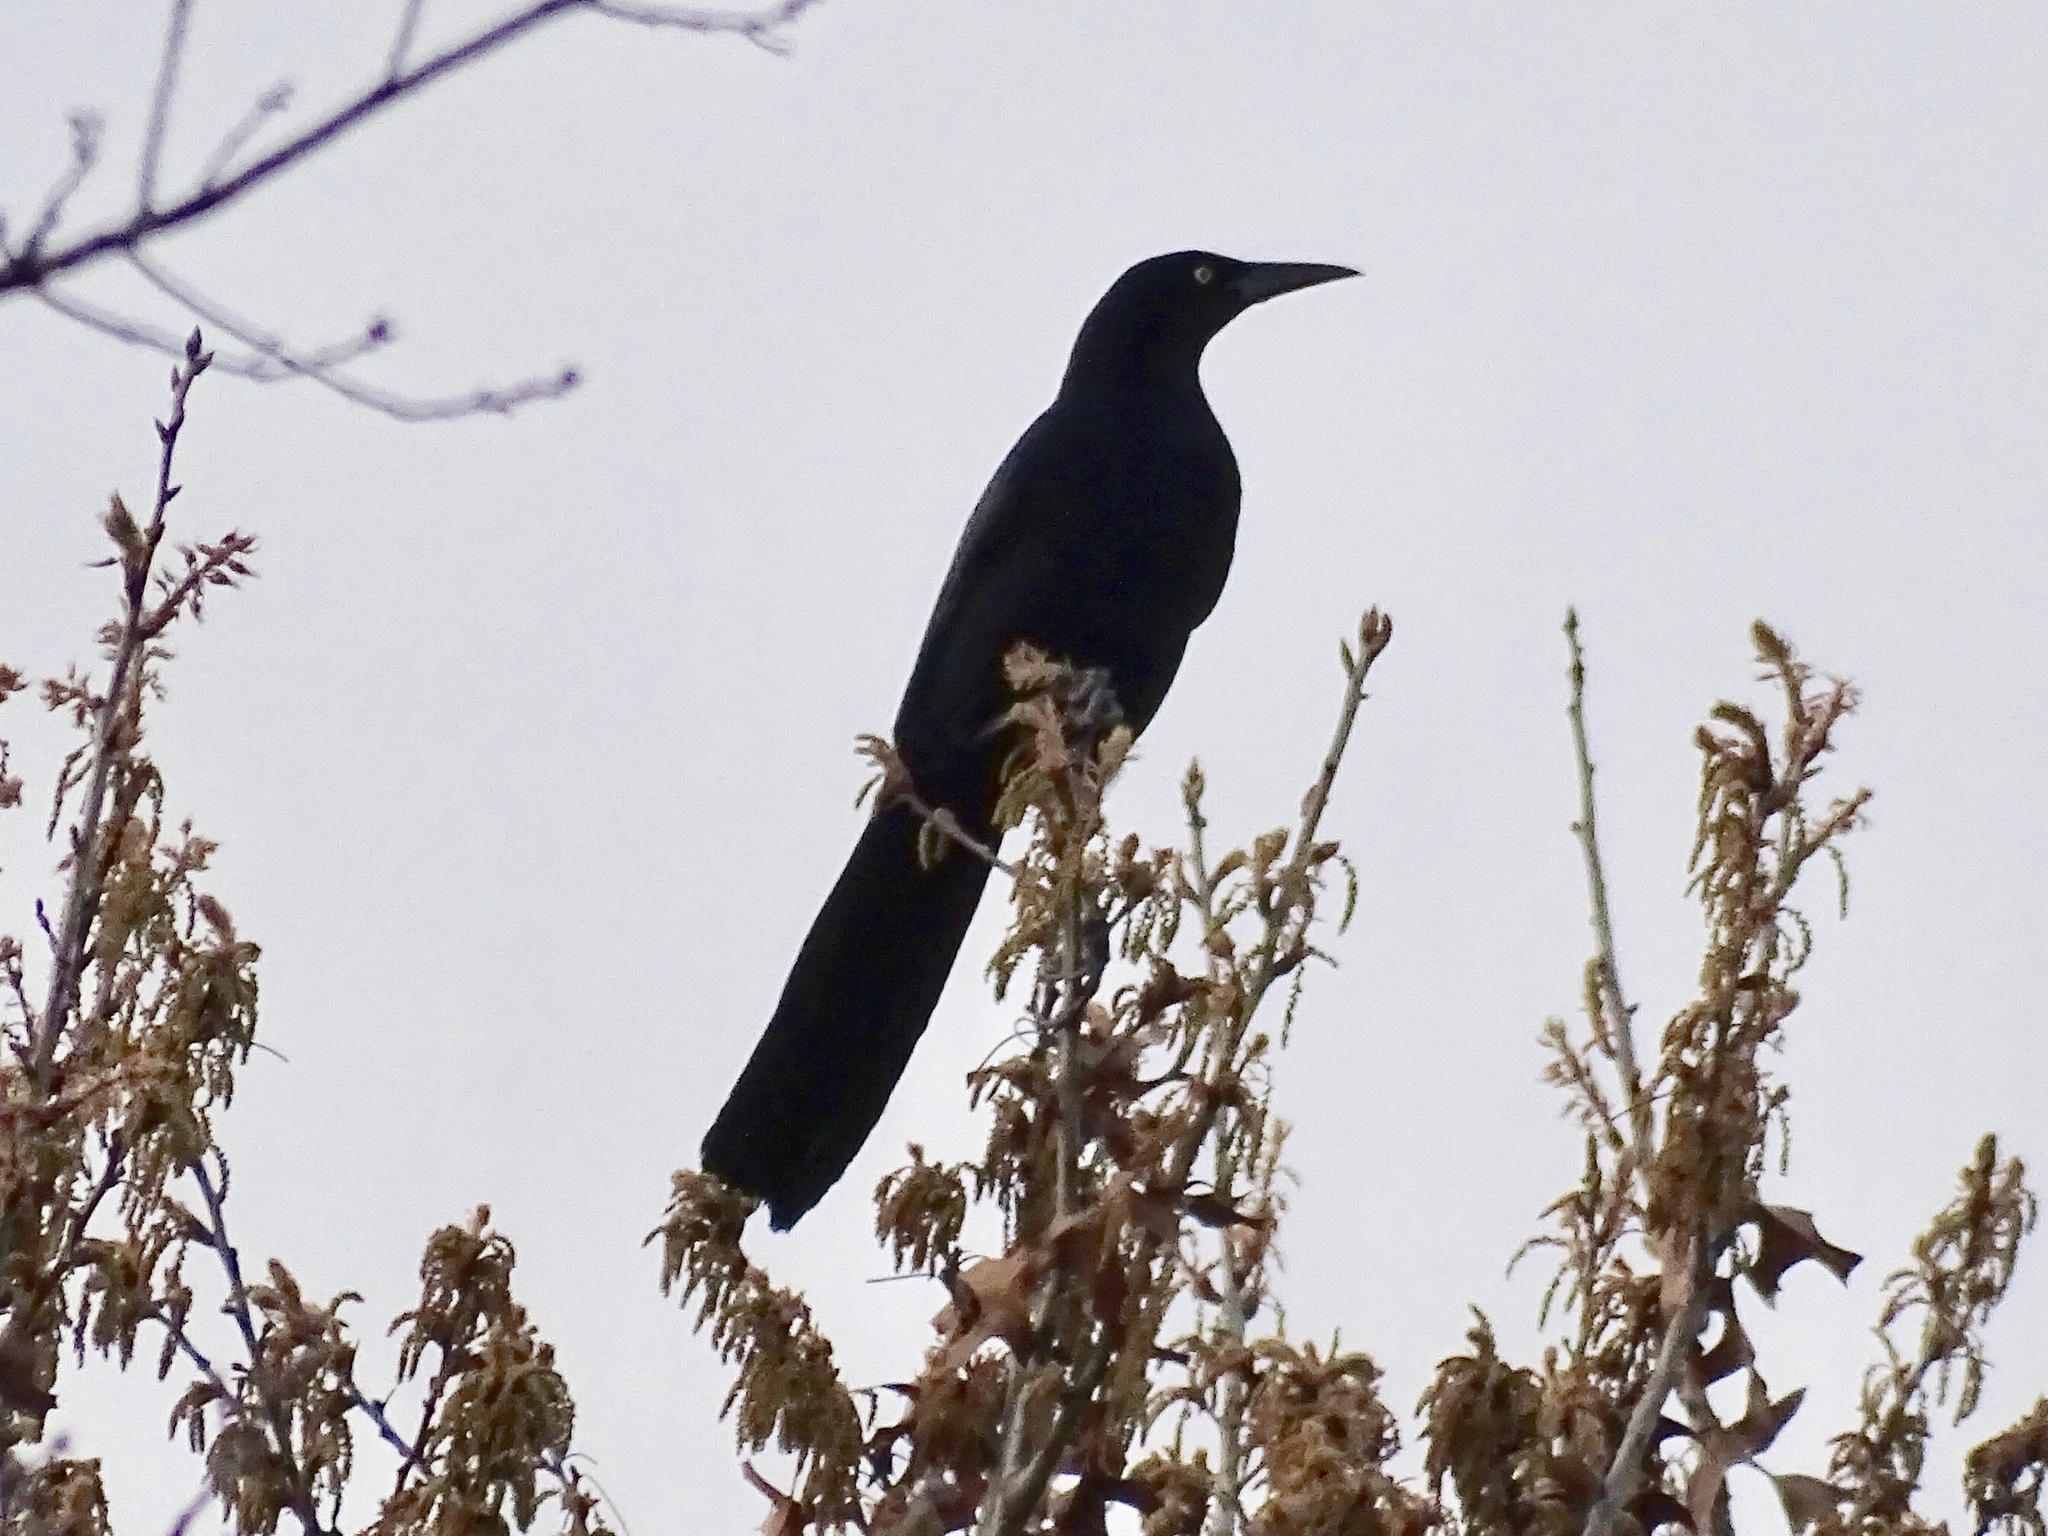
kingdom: Animalia
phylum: Chordata
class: Aves
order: Passeriformes
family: Icteridae
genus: Quiscalus
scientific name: Quiscalus mexicanus
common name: Great-tailed grackle
